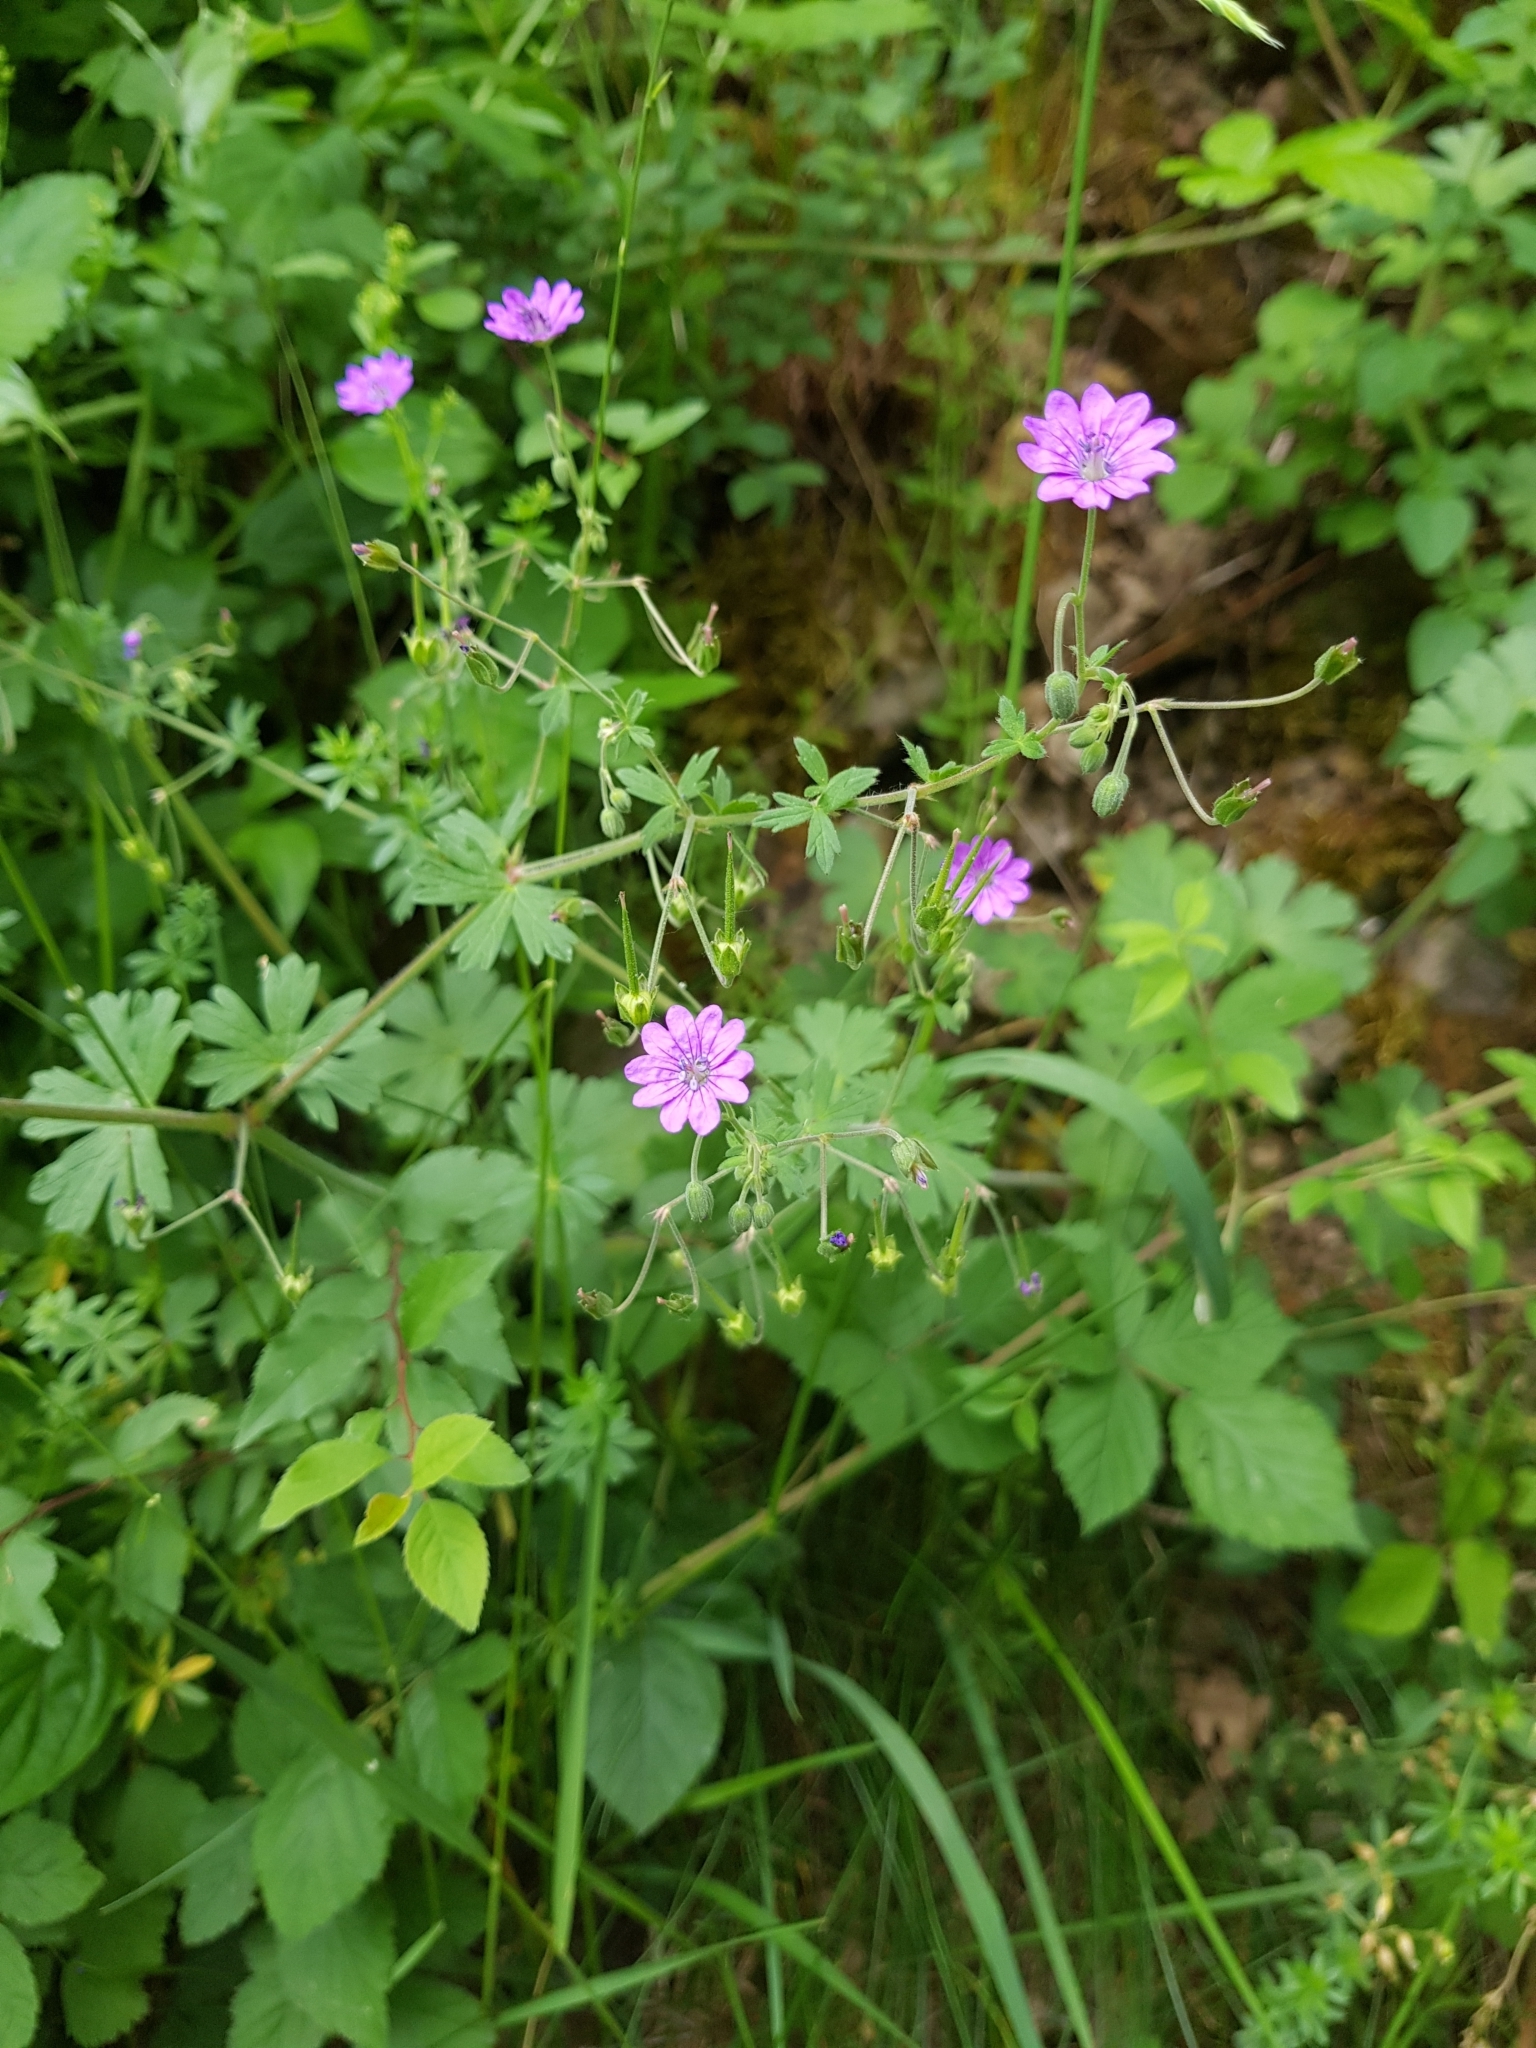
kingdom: Plantae
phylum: Tracheophyta
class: Magnoliopsida
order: Geraniales
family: Geraniaceae
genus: Geranium
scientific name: Geranium pyrenaicum
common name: Hedgerow crane's-bill
